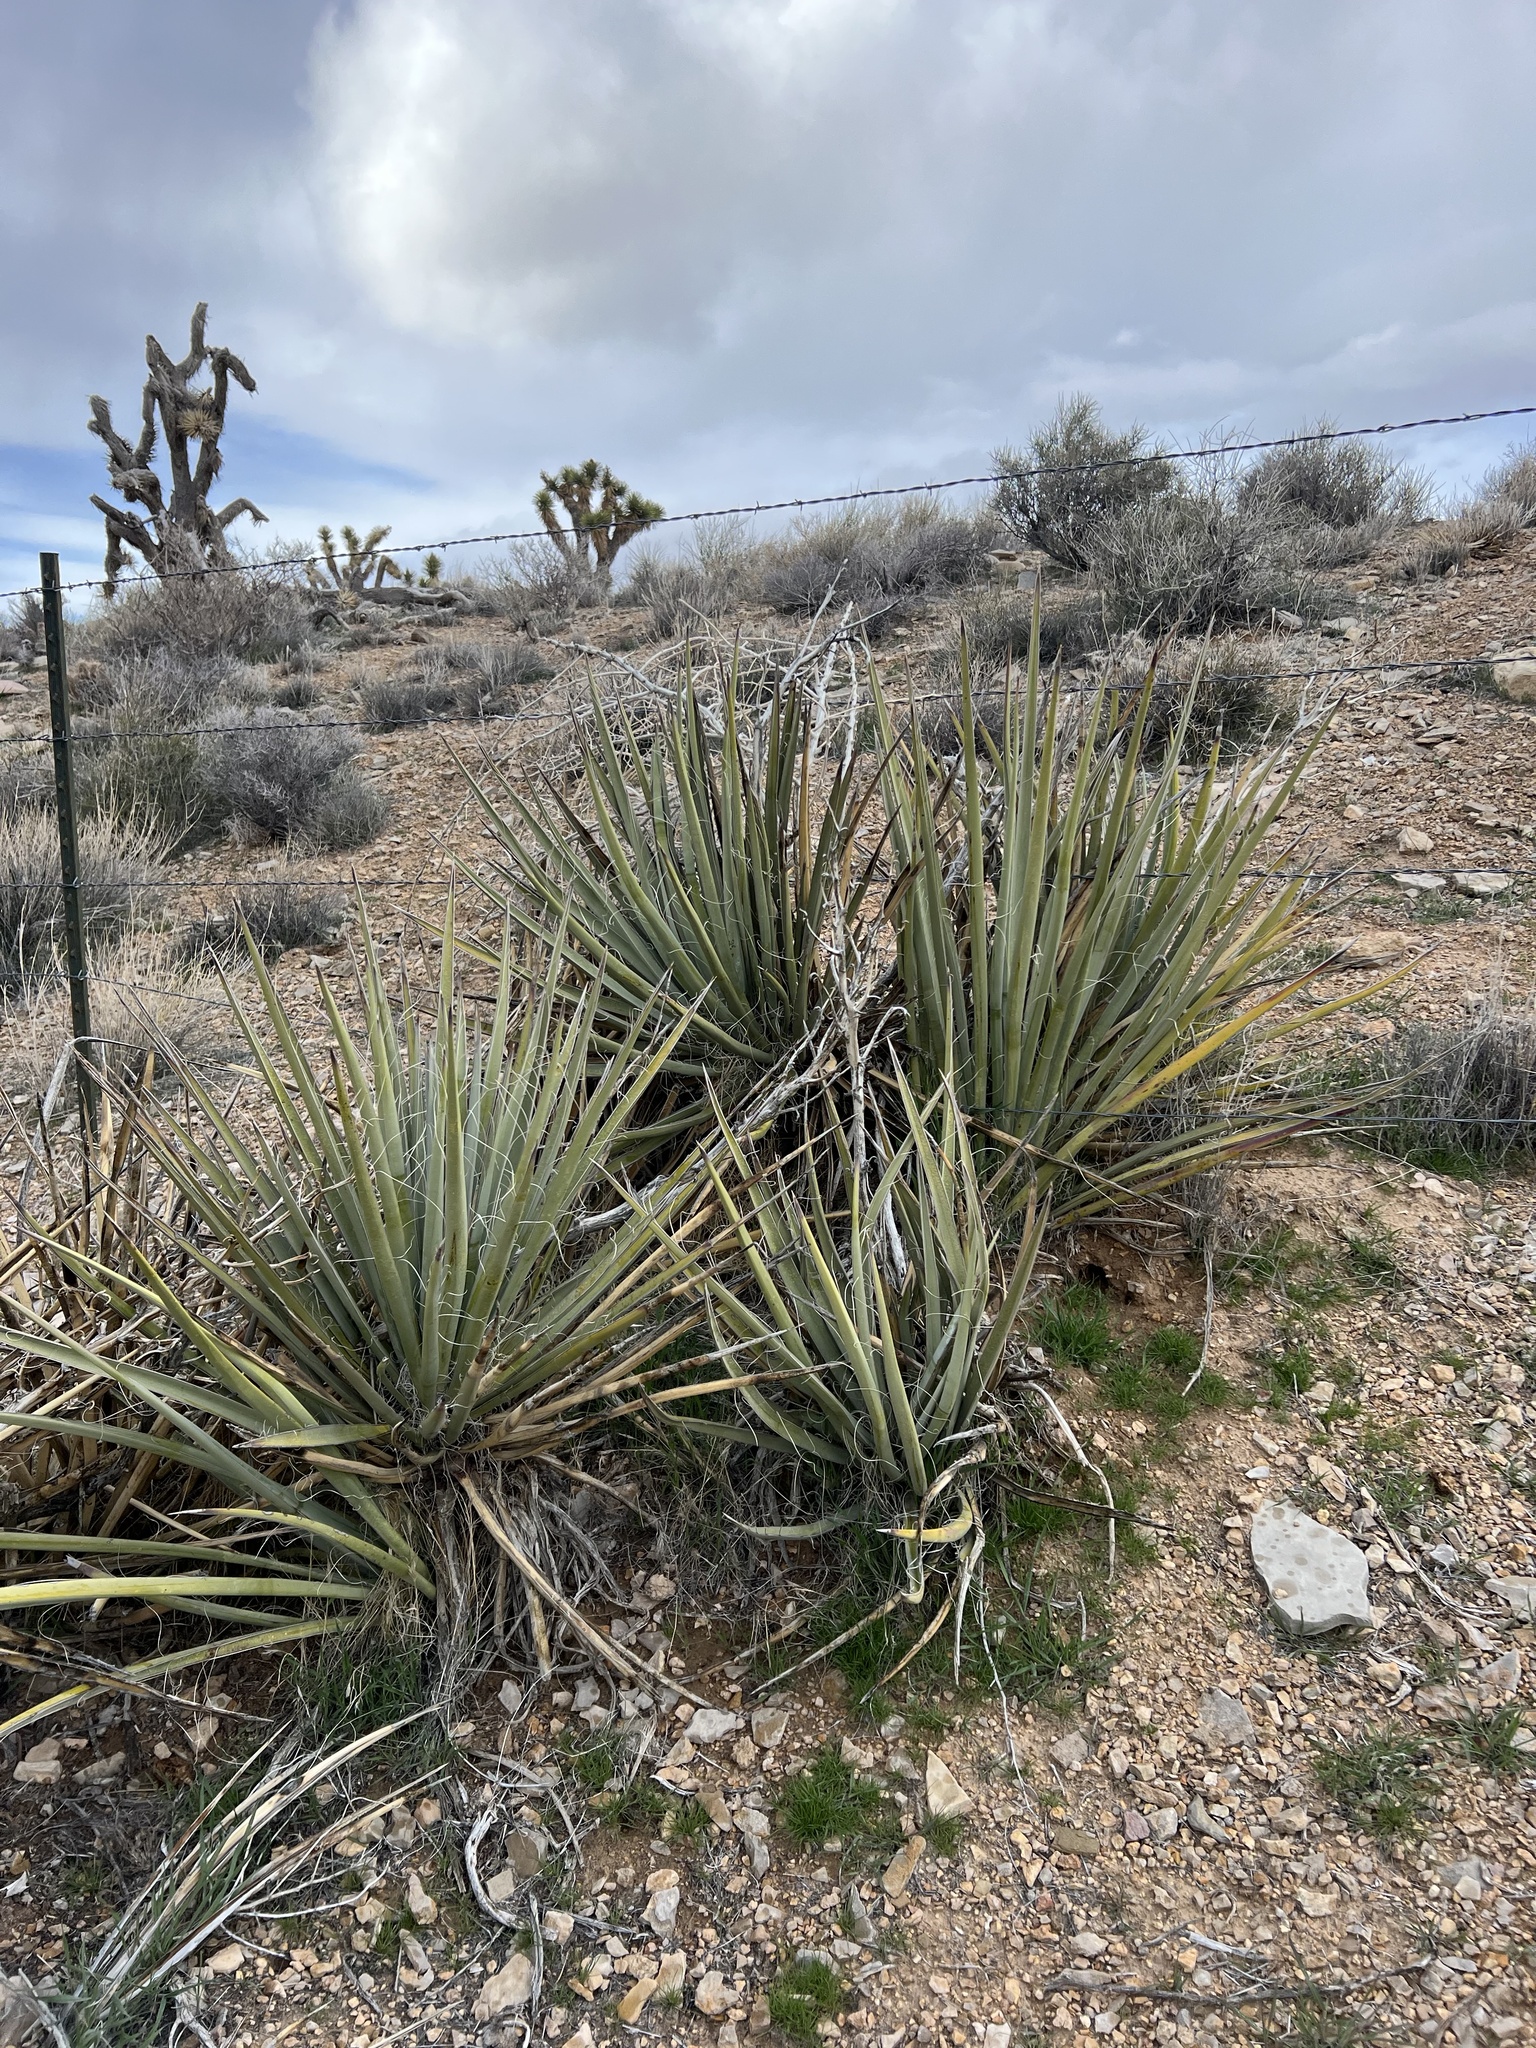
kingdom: Plantae
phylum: Tracheophyta
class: Liliopsida
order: Asparagales
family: Asparagaceae
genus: Yucca
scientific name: Yucca baccata
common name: Banana yucca
